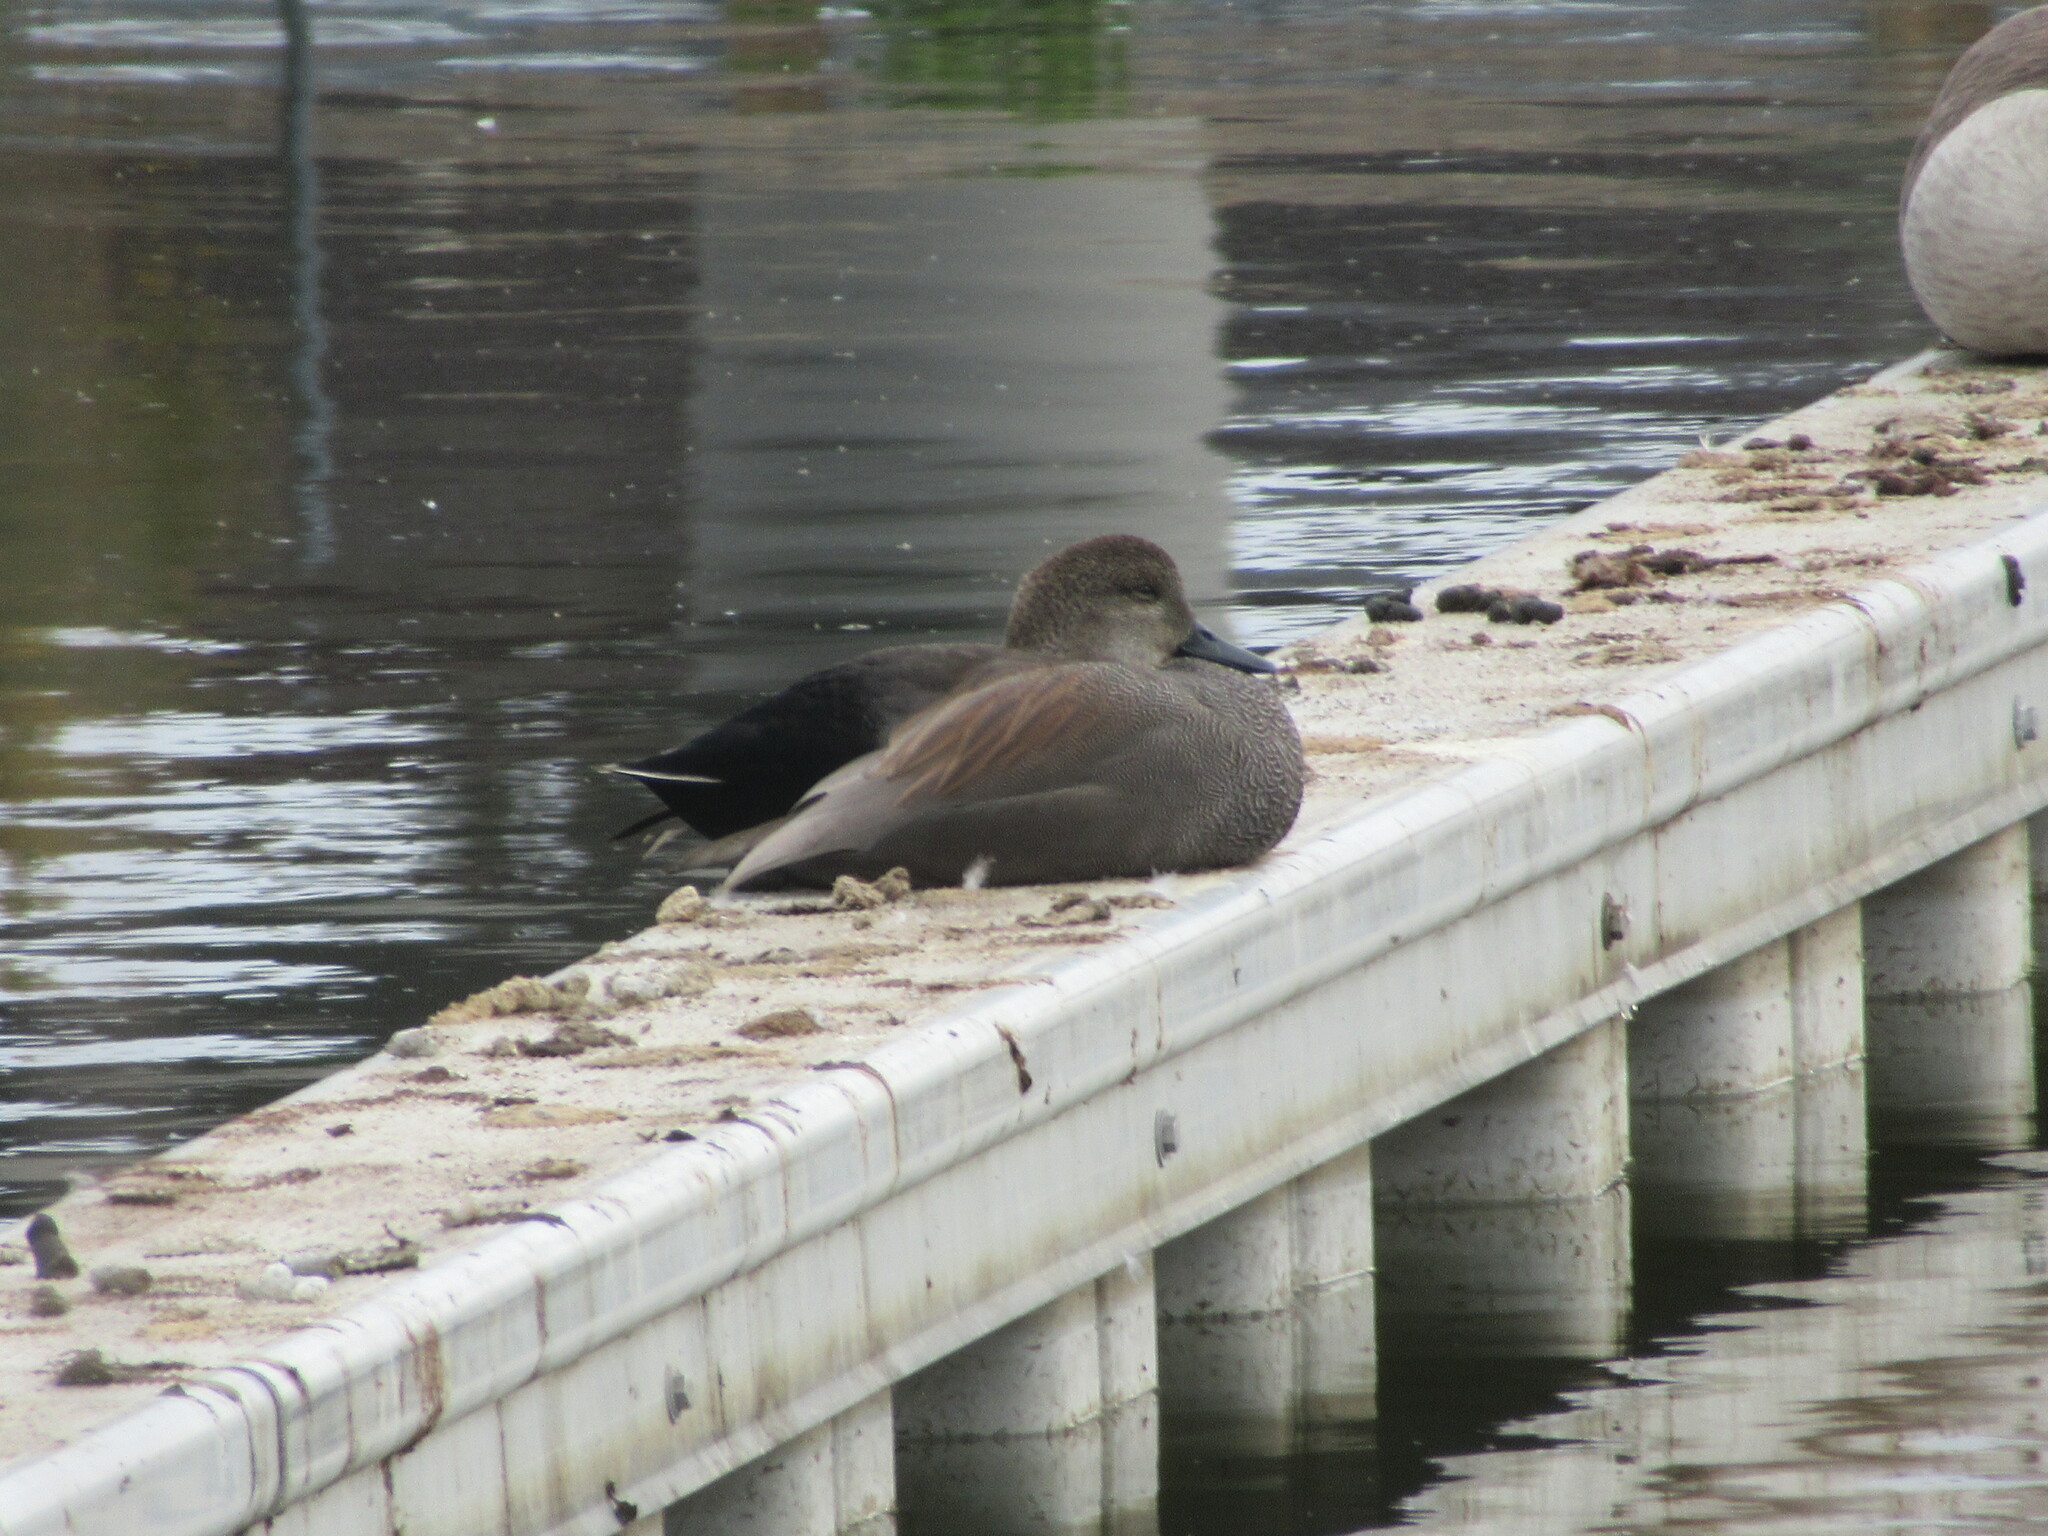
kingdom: Animalia
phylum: Chordata
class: Aves
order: Anseriformes
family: Anatidae
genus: Mareca
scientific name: Mareca strepera
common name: Gadwall
